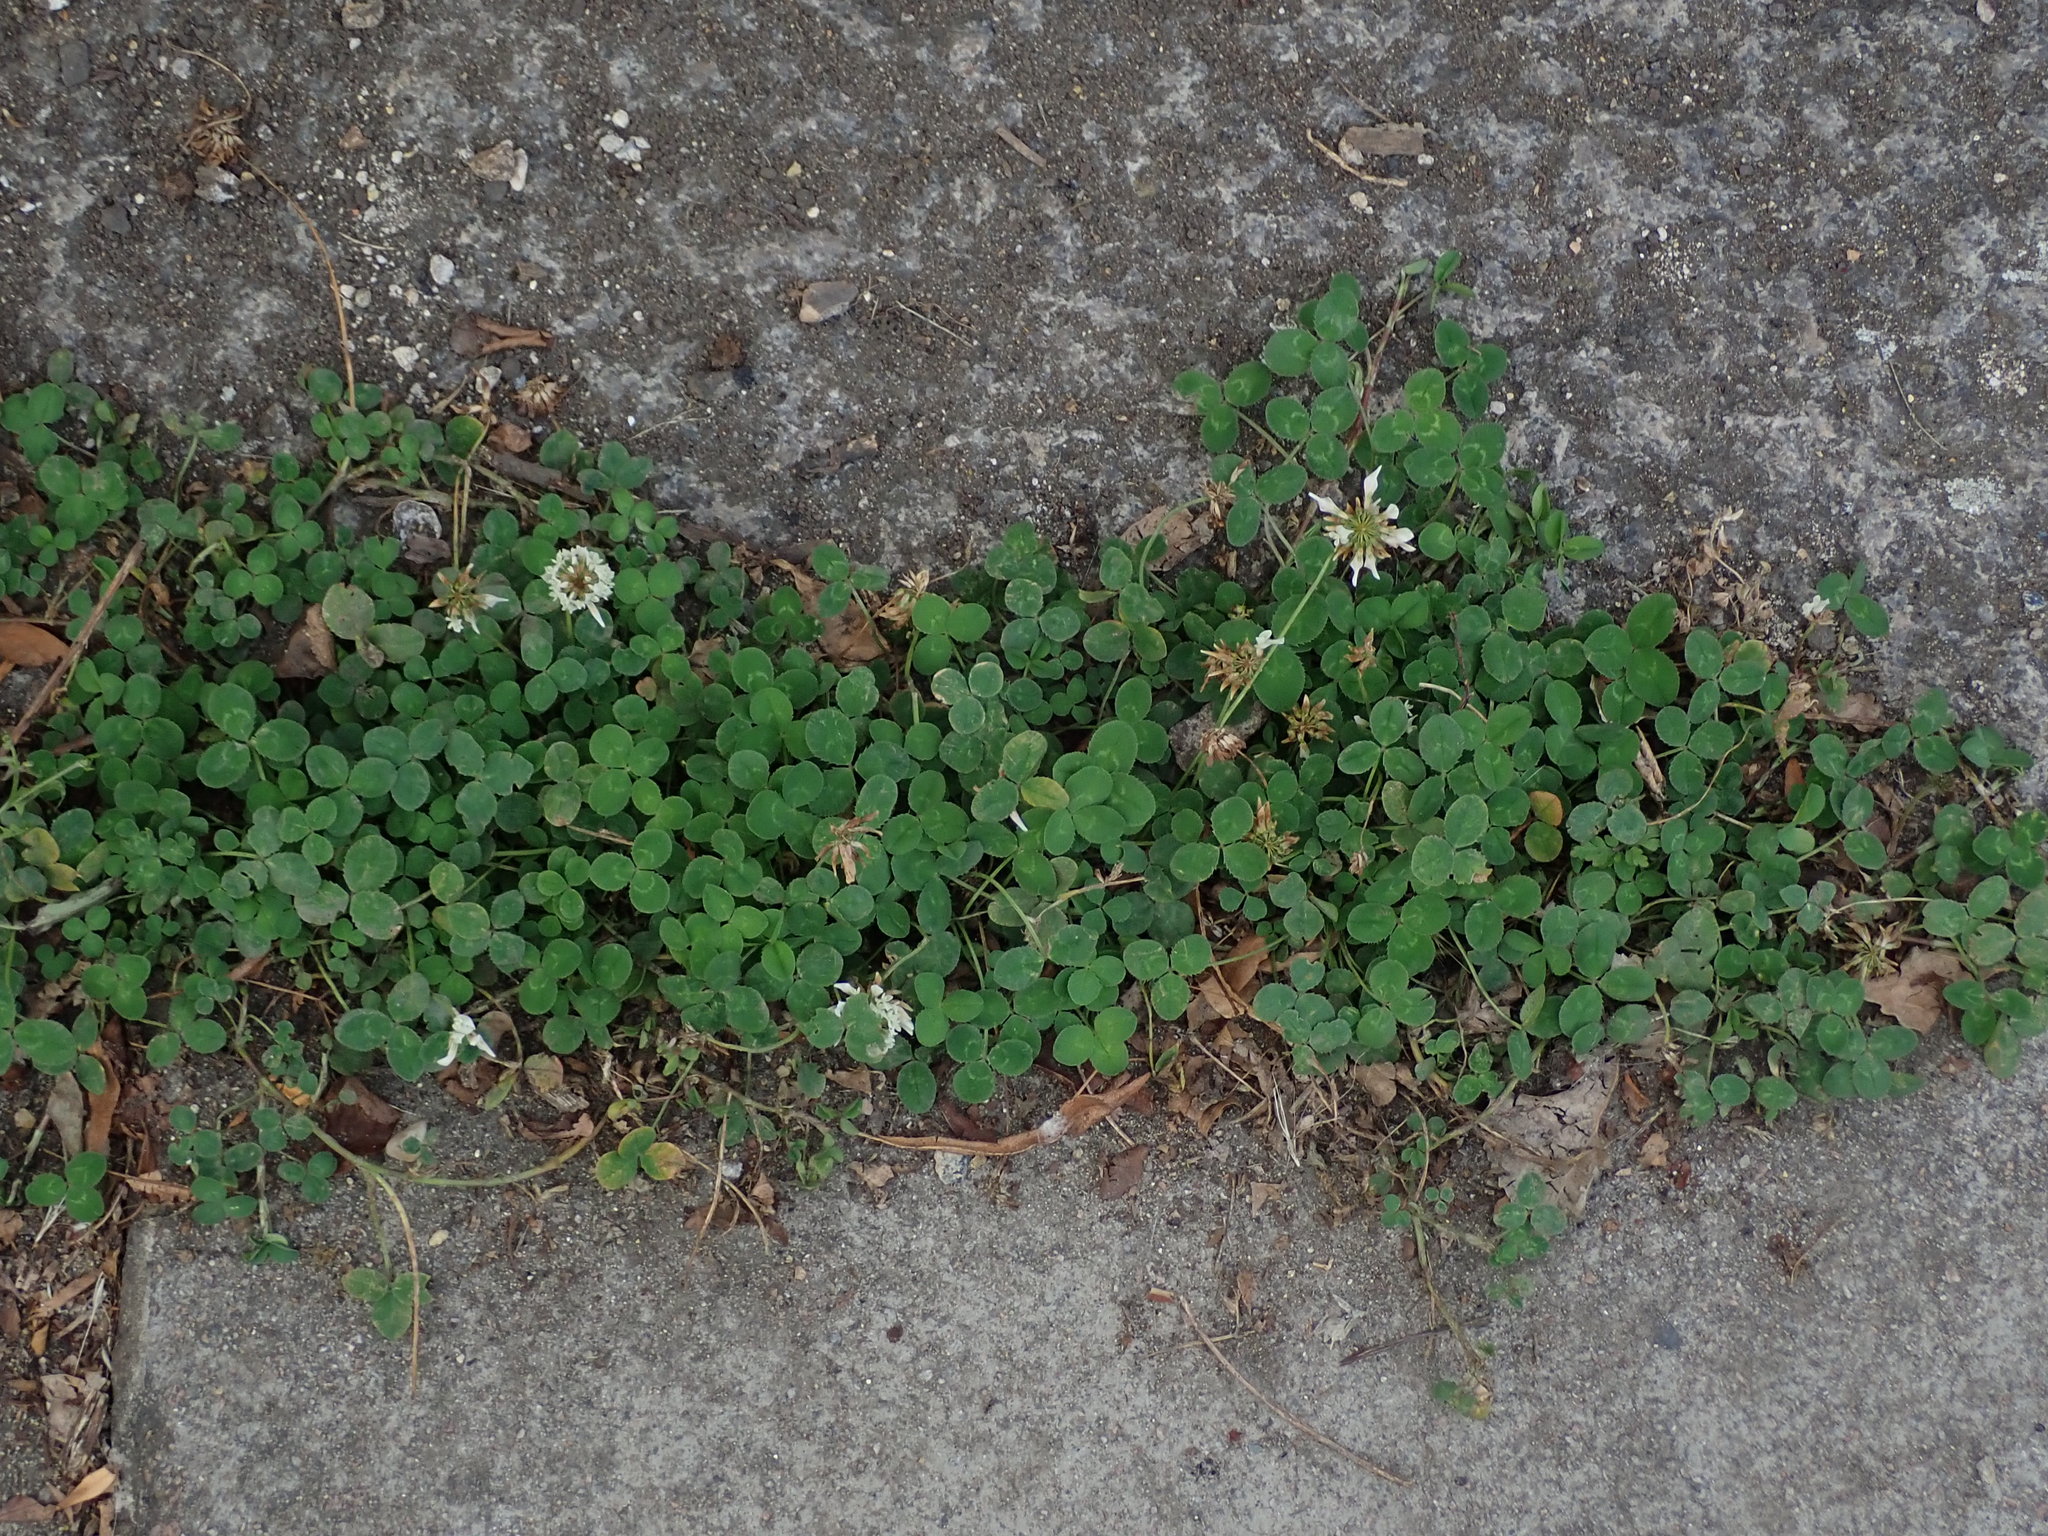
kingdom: Plantae
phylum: Tracheophyta
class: Magnoliopsida
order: Fabales
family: Fabaceae
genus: Trifolium
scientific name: Trifolium repens
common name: White clover
